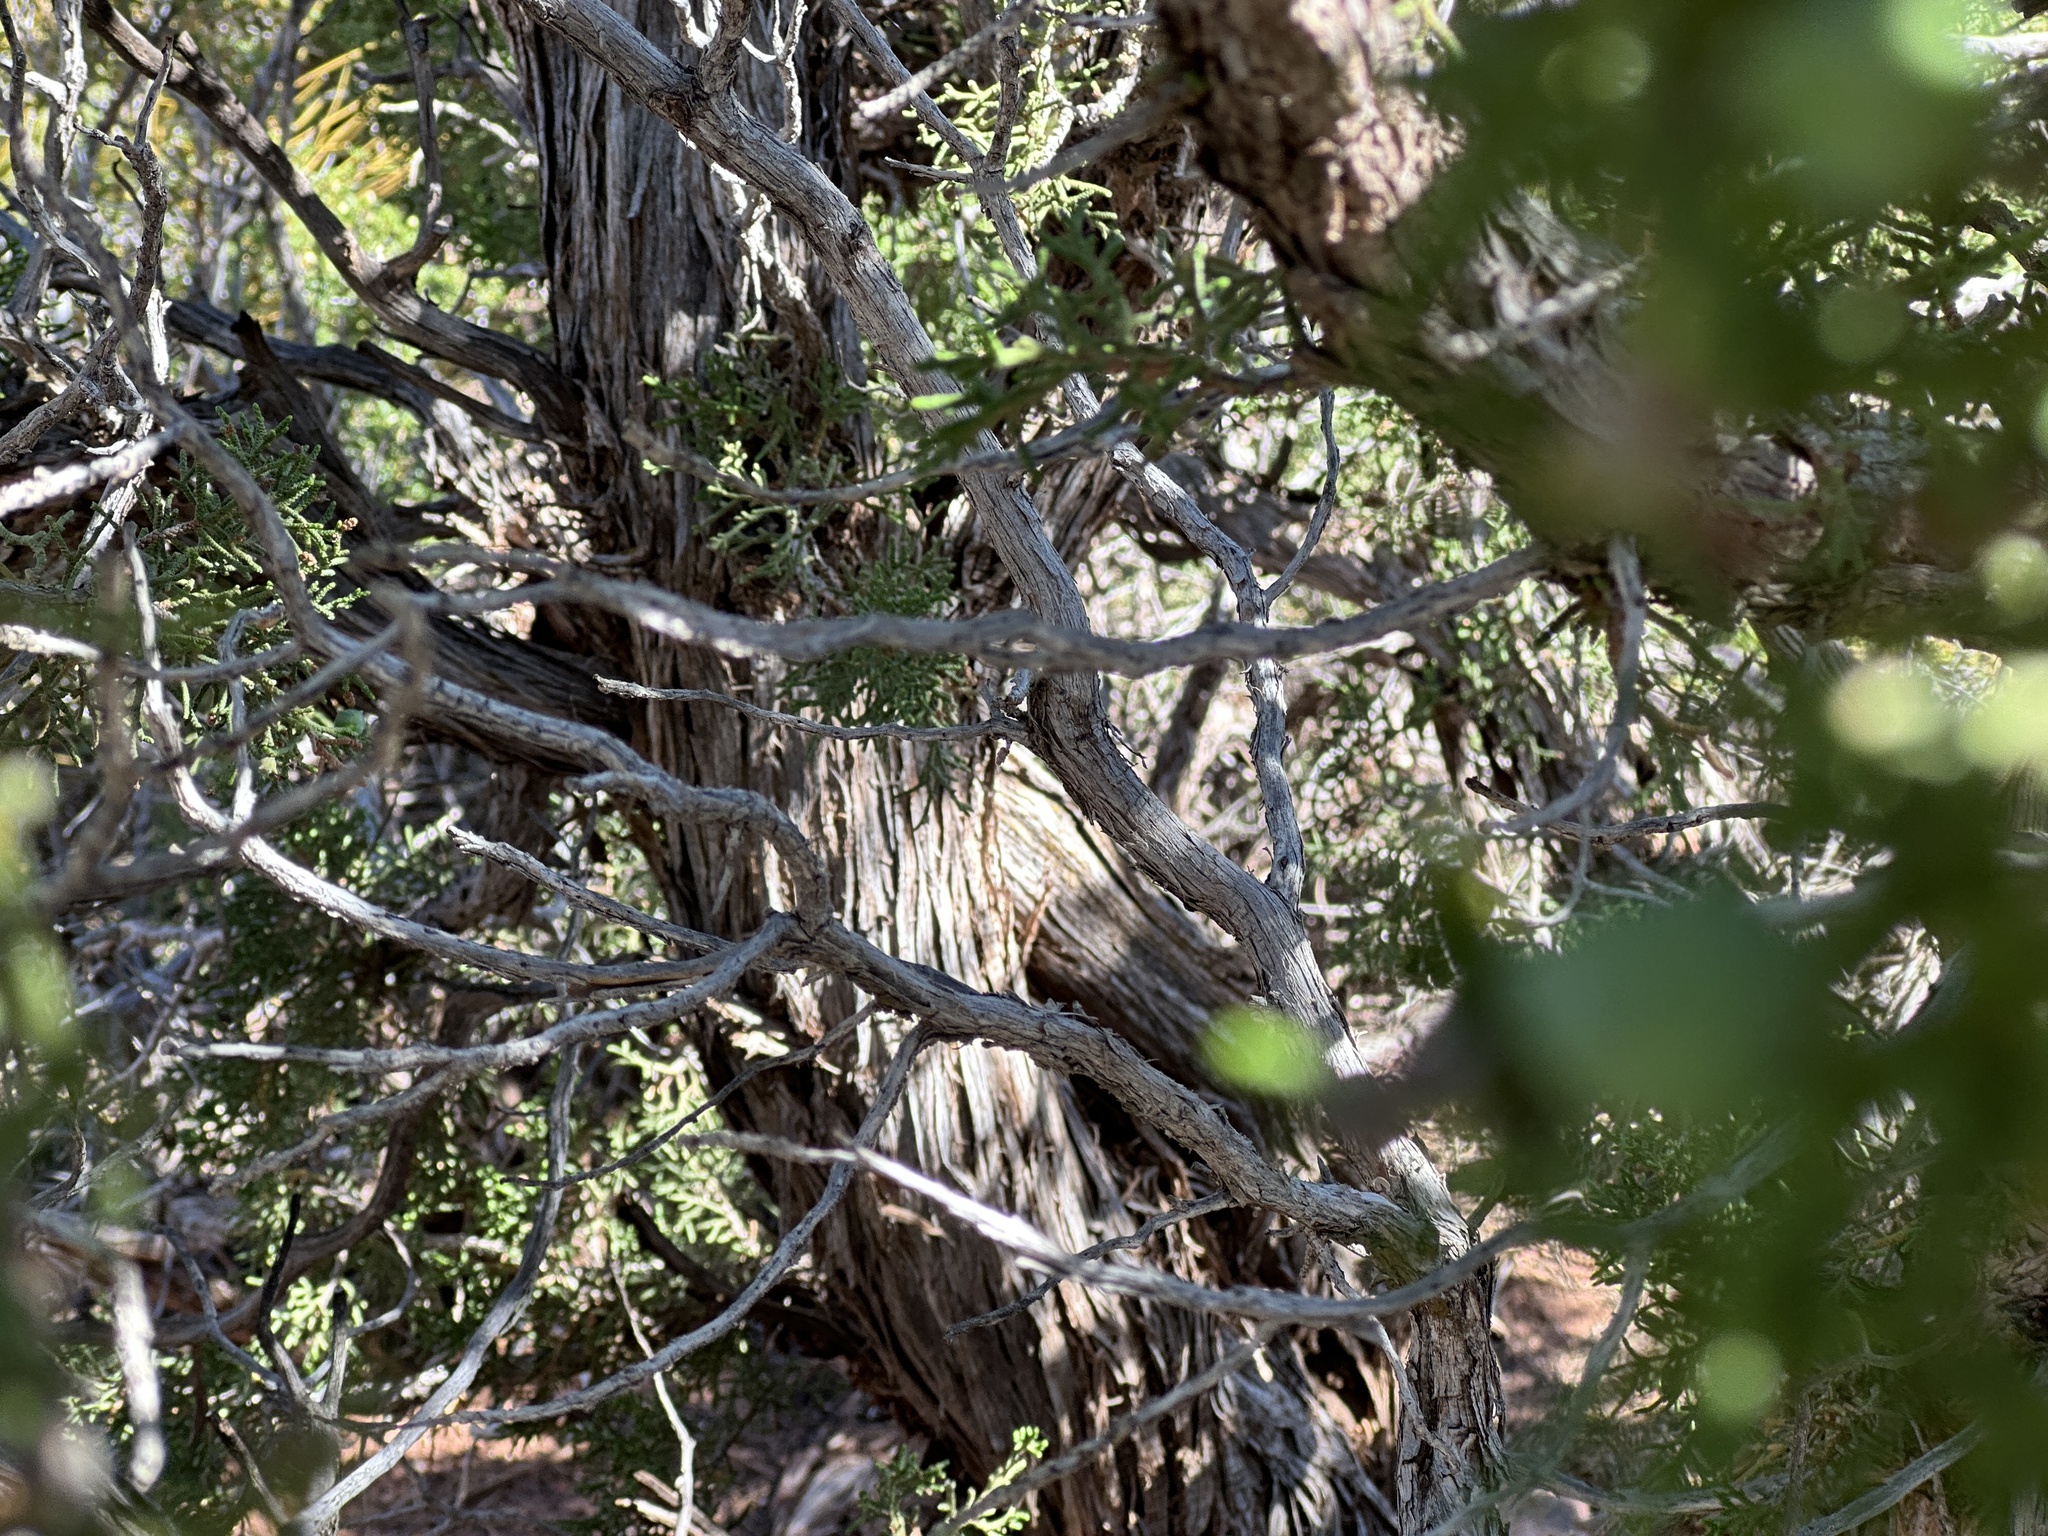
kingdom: Plantae
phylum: Tracheophyta
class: Pinopsida
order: Pinales
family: Cupressaceae
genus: Juniperus
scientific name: Juniperus osteosperma
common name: Utah juniper
